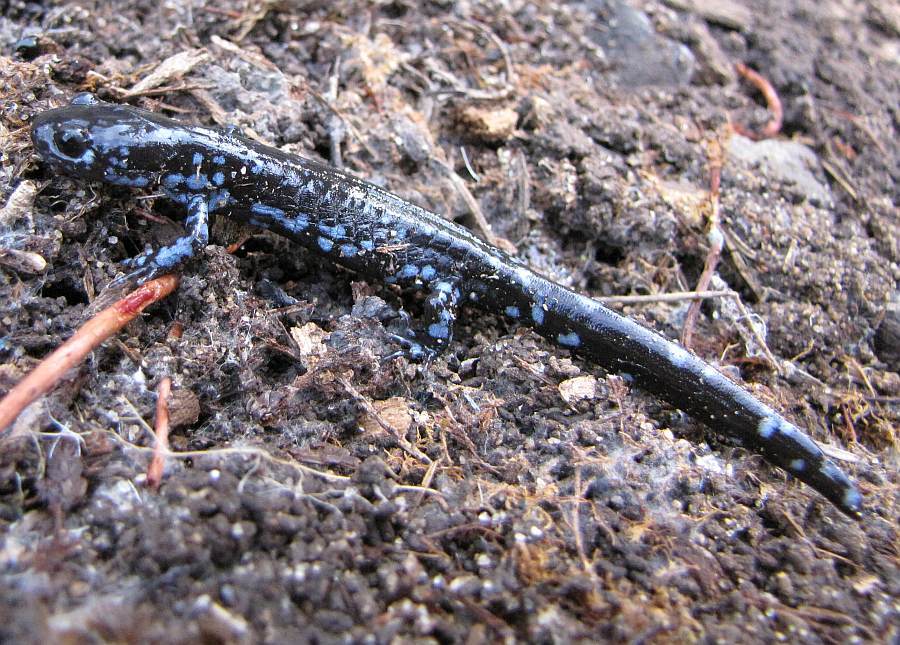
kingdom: Animalia
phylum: Chordata
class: Amphibia
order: Caudata
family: Ambystomatidae
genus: Ambystoma
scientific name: Ambystoma laterale
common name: Blue-spotted salamander
